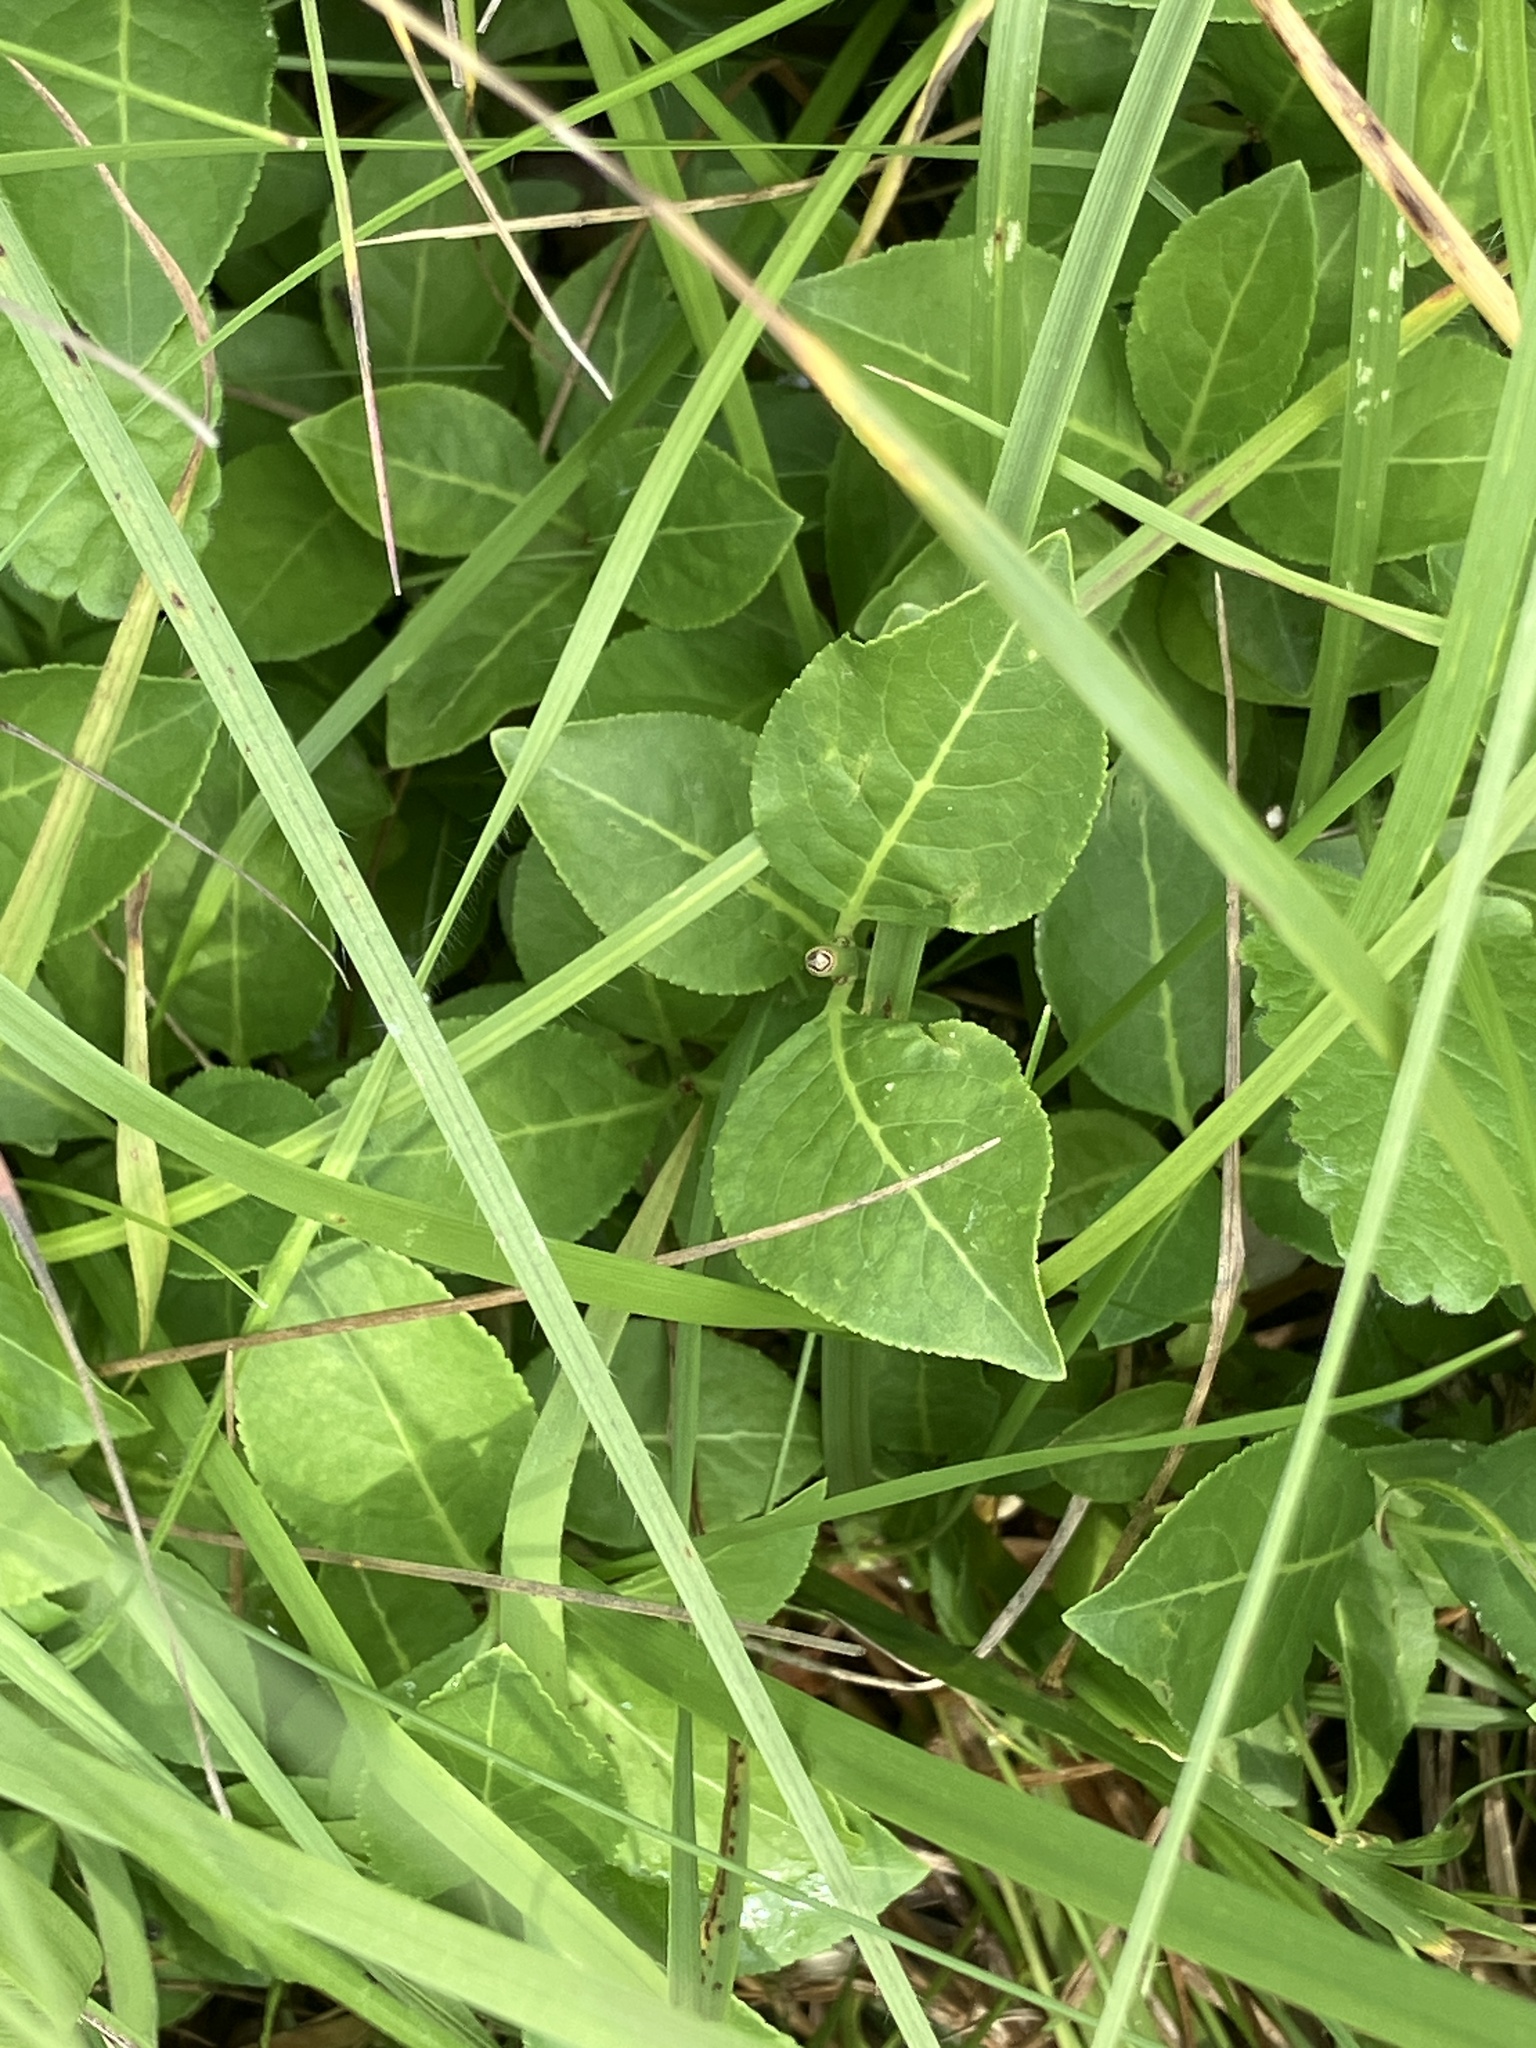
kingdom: Plantae
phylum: Tracheophyta
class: Magnoliopsida
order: Celastrales
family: Celastraceae
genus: Euonymus
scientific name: Euonymus europaeus
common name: Spindle
